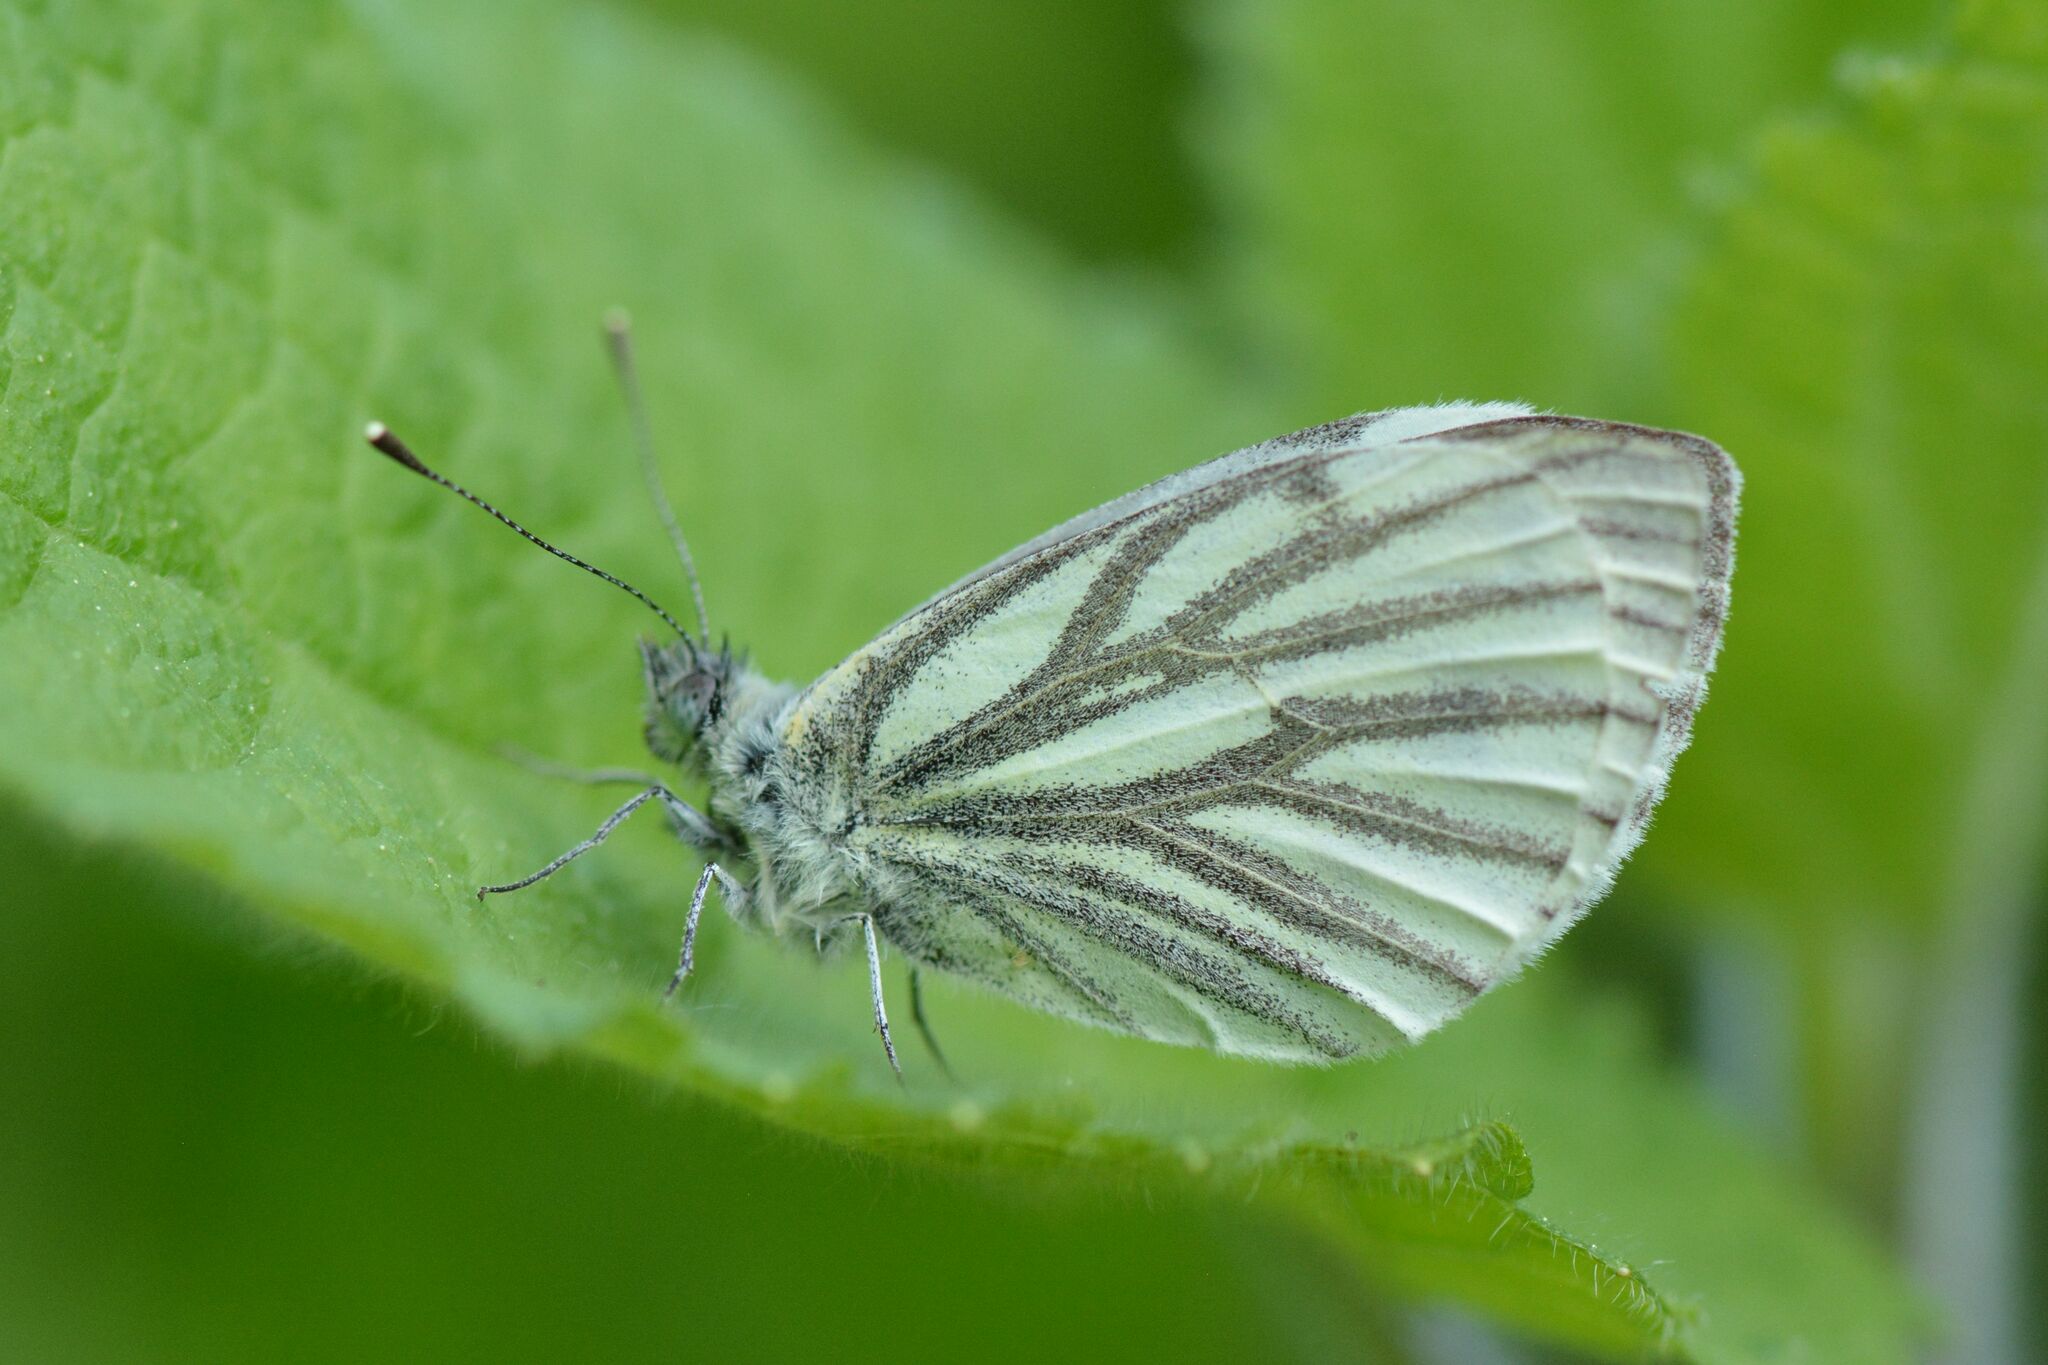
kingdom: Animalia
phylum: Arthropoda
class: Insecta
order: Lepidoptera
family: Pieridae
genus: Pieris
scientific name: Pieris napi
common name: Green-veined white
